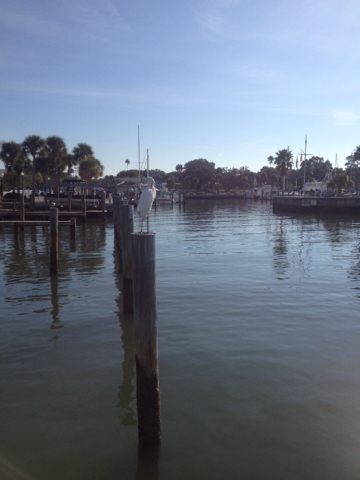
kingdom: Animalia
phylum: Chordata
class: Aves
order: Pelecaniformes
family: Ardeidae
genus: Ardea
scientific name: Ardea alba
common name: Great egret
